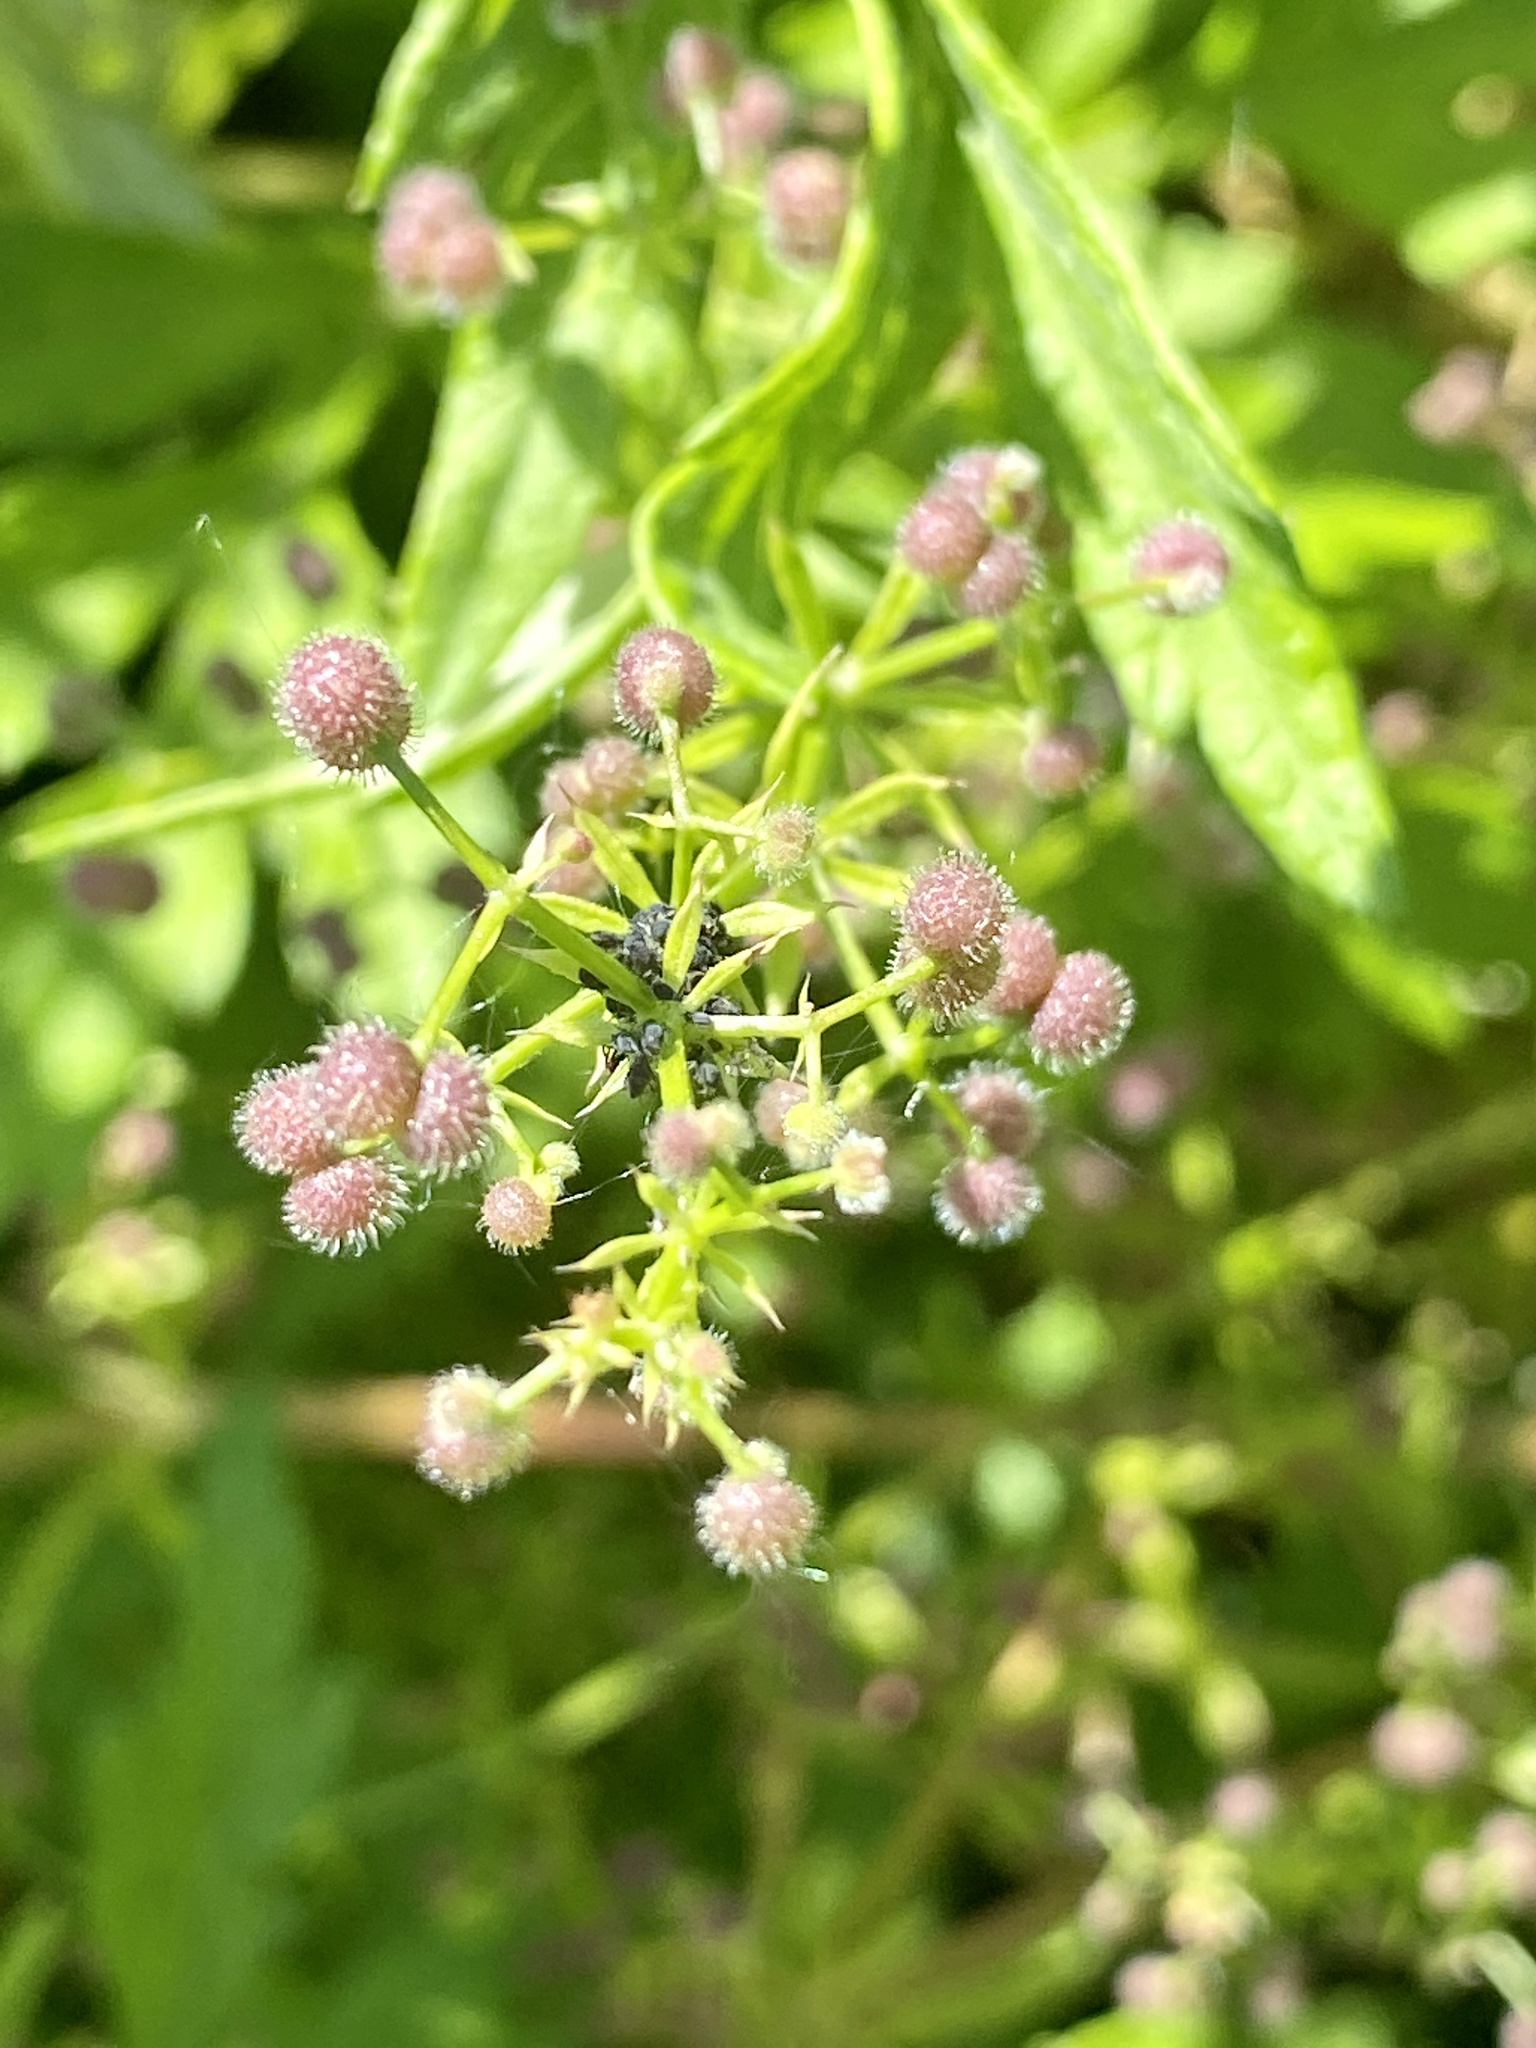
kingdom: Plantae
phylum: Tracheophyta
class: Magnoliopsida
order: Gentianales
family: Rubiaceae
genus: Galium
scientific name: Galium aparine
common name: Cleavers
